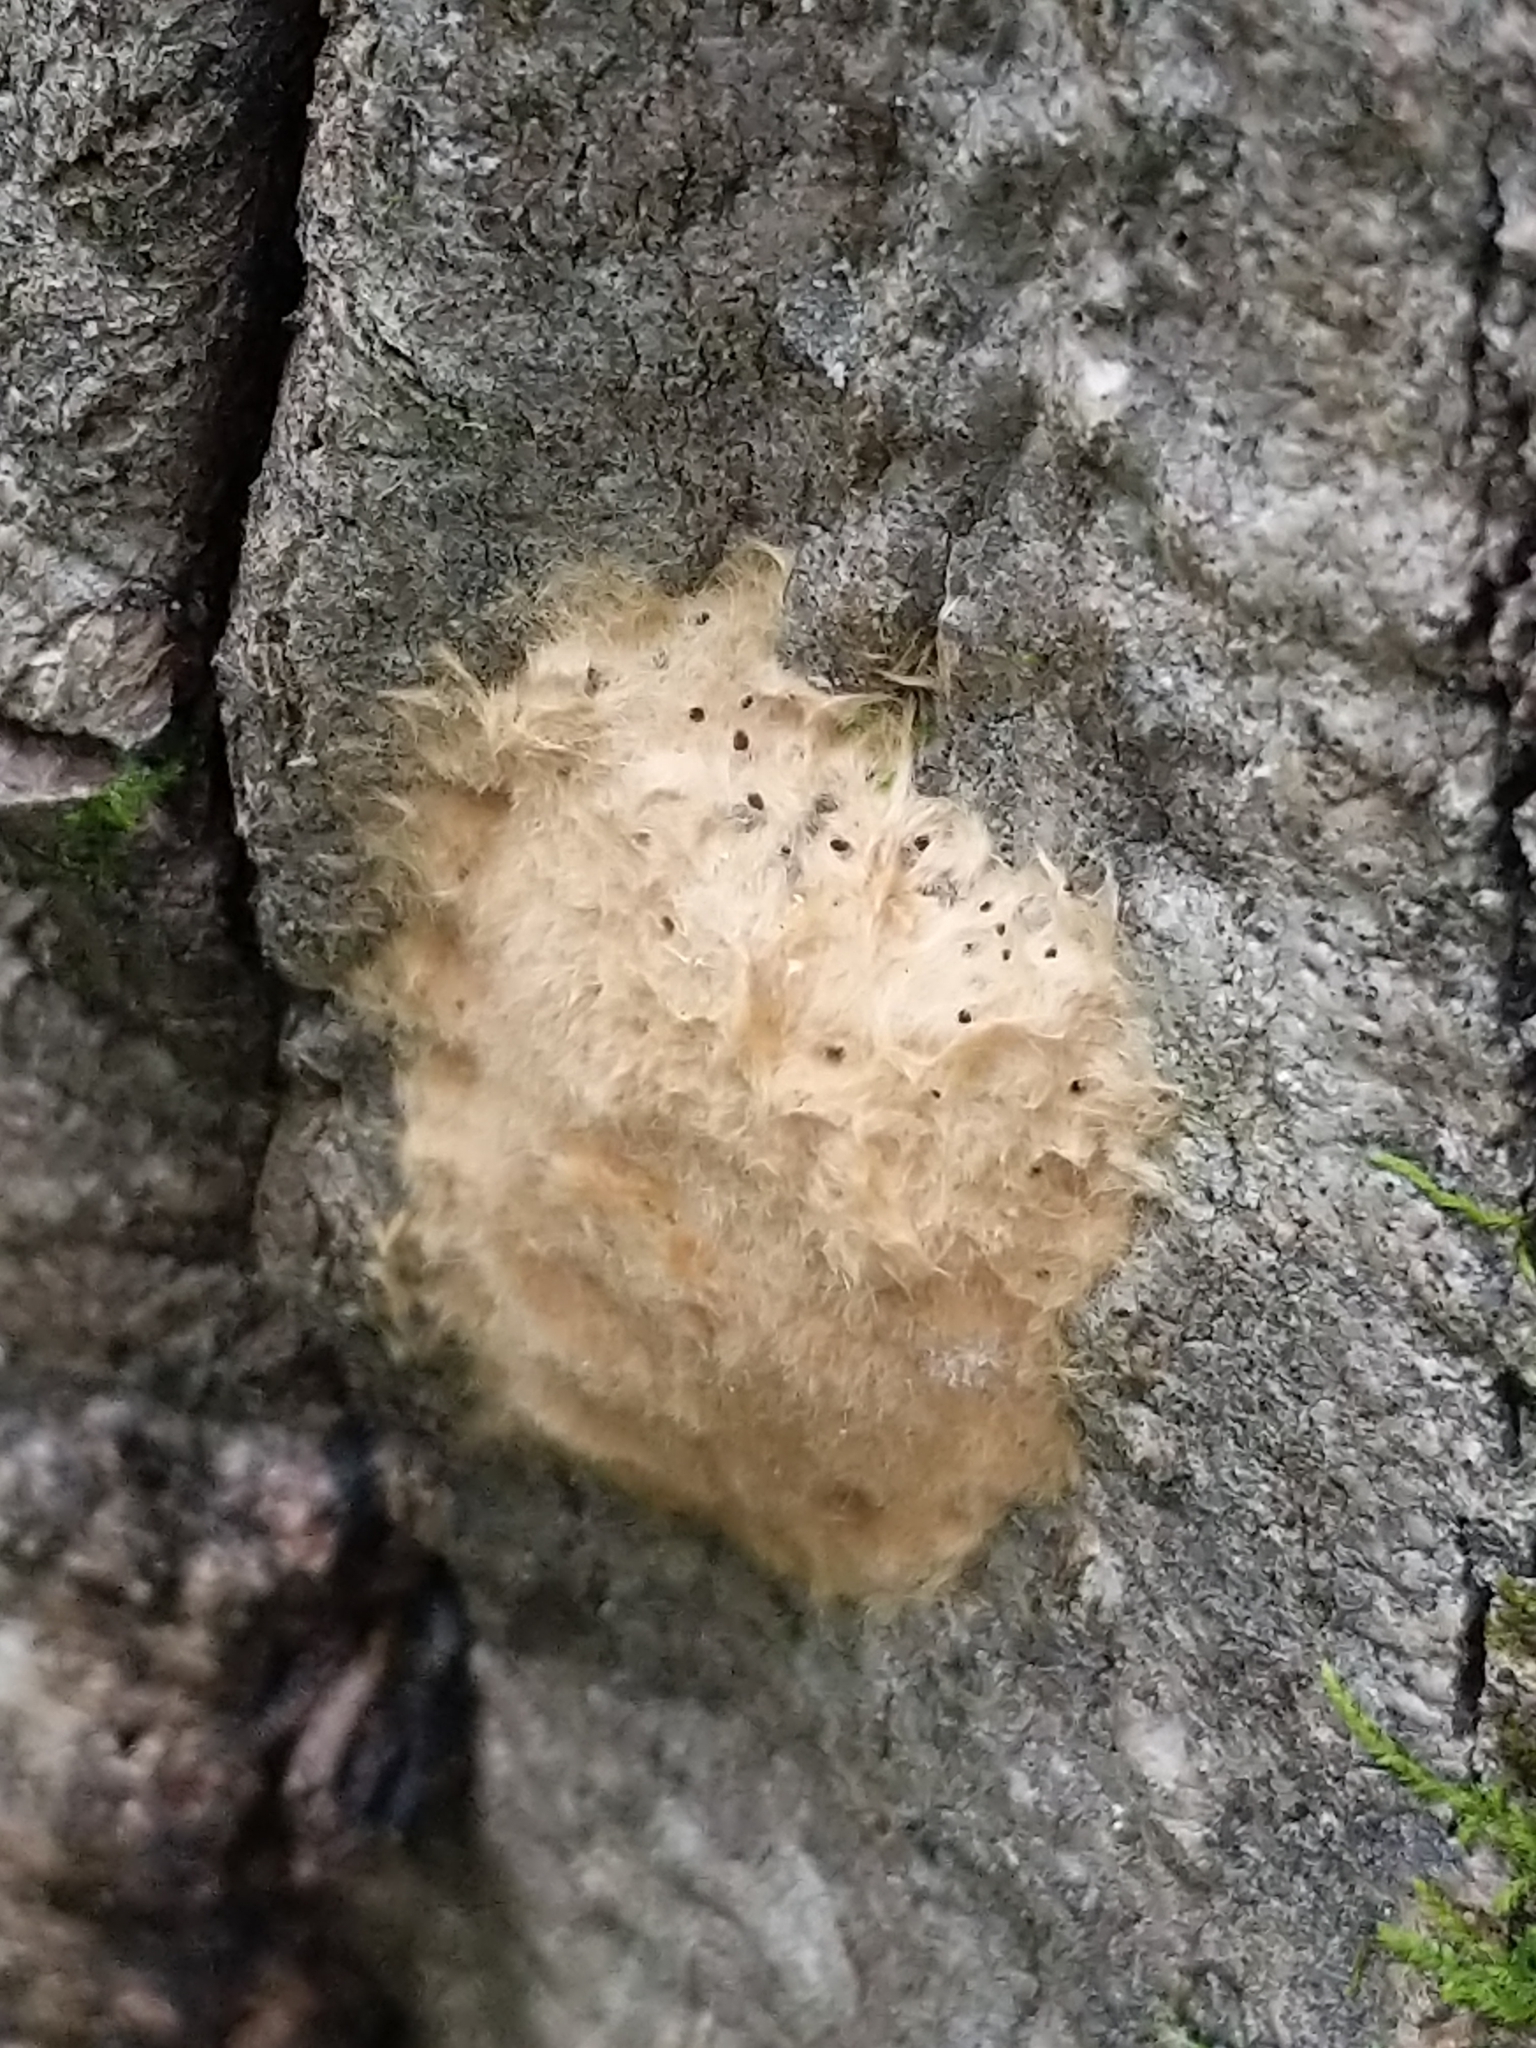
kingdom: Animalia
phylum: Arthropoda
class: Insecta
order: Lepidoptera
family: Erebidae
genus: Lymantria
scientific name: Lymantria dispar
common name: Gypsy moth
